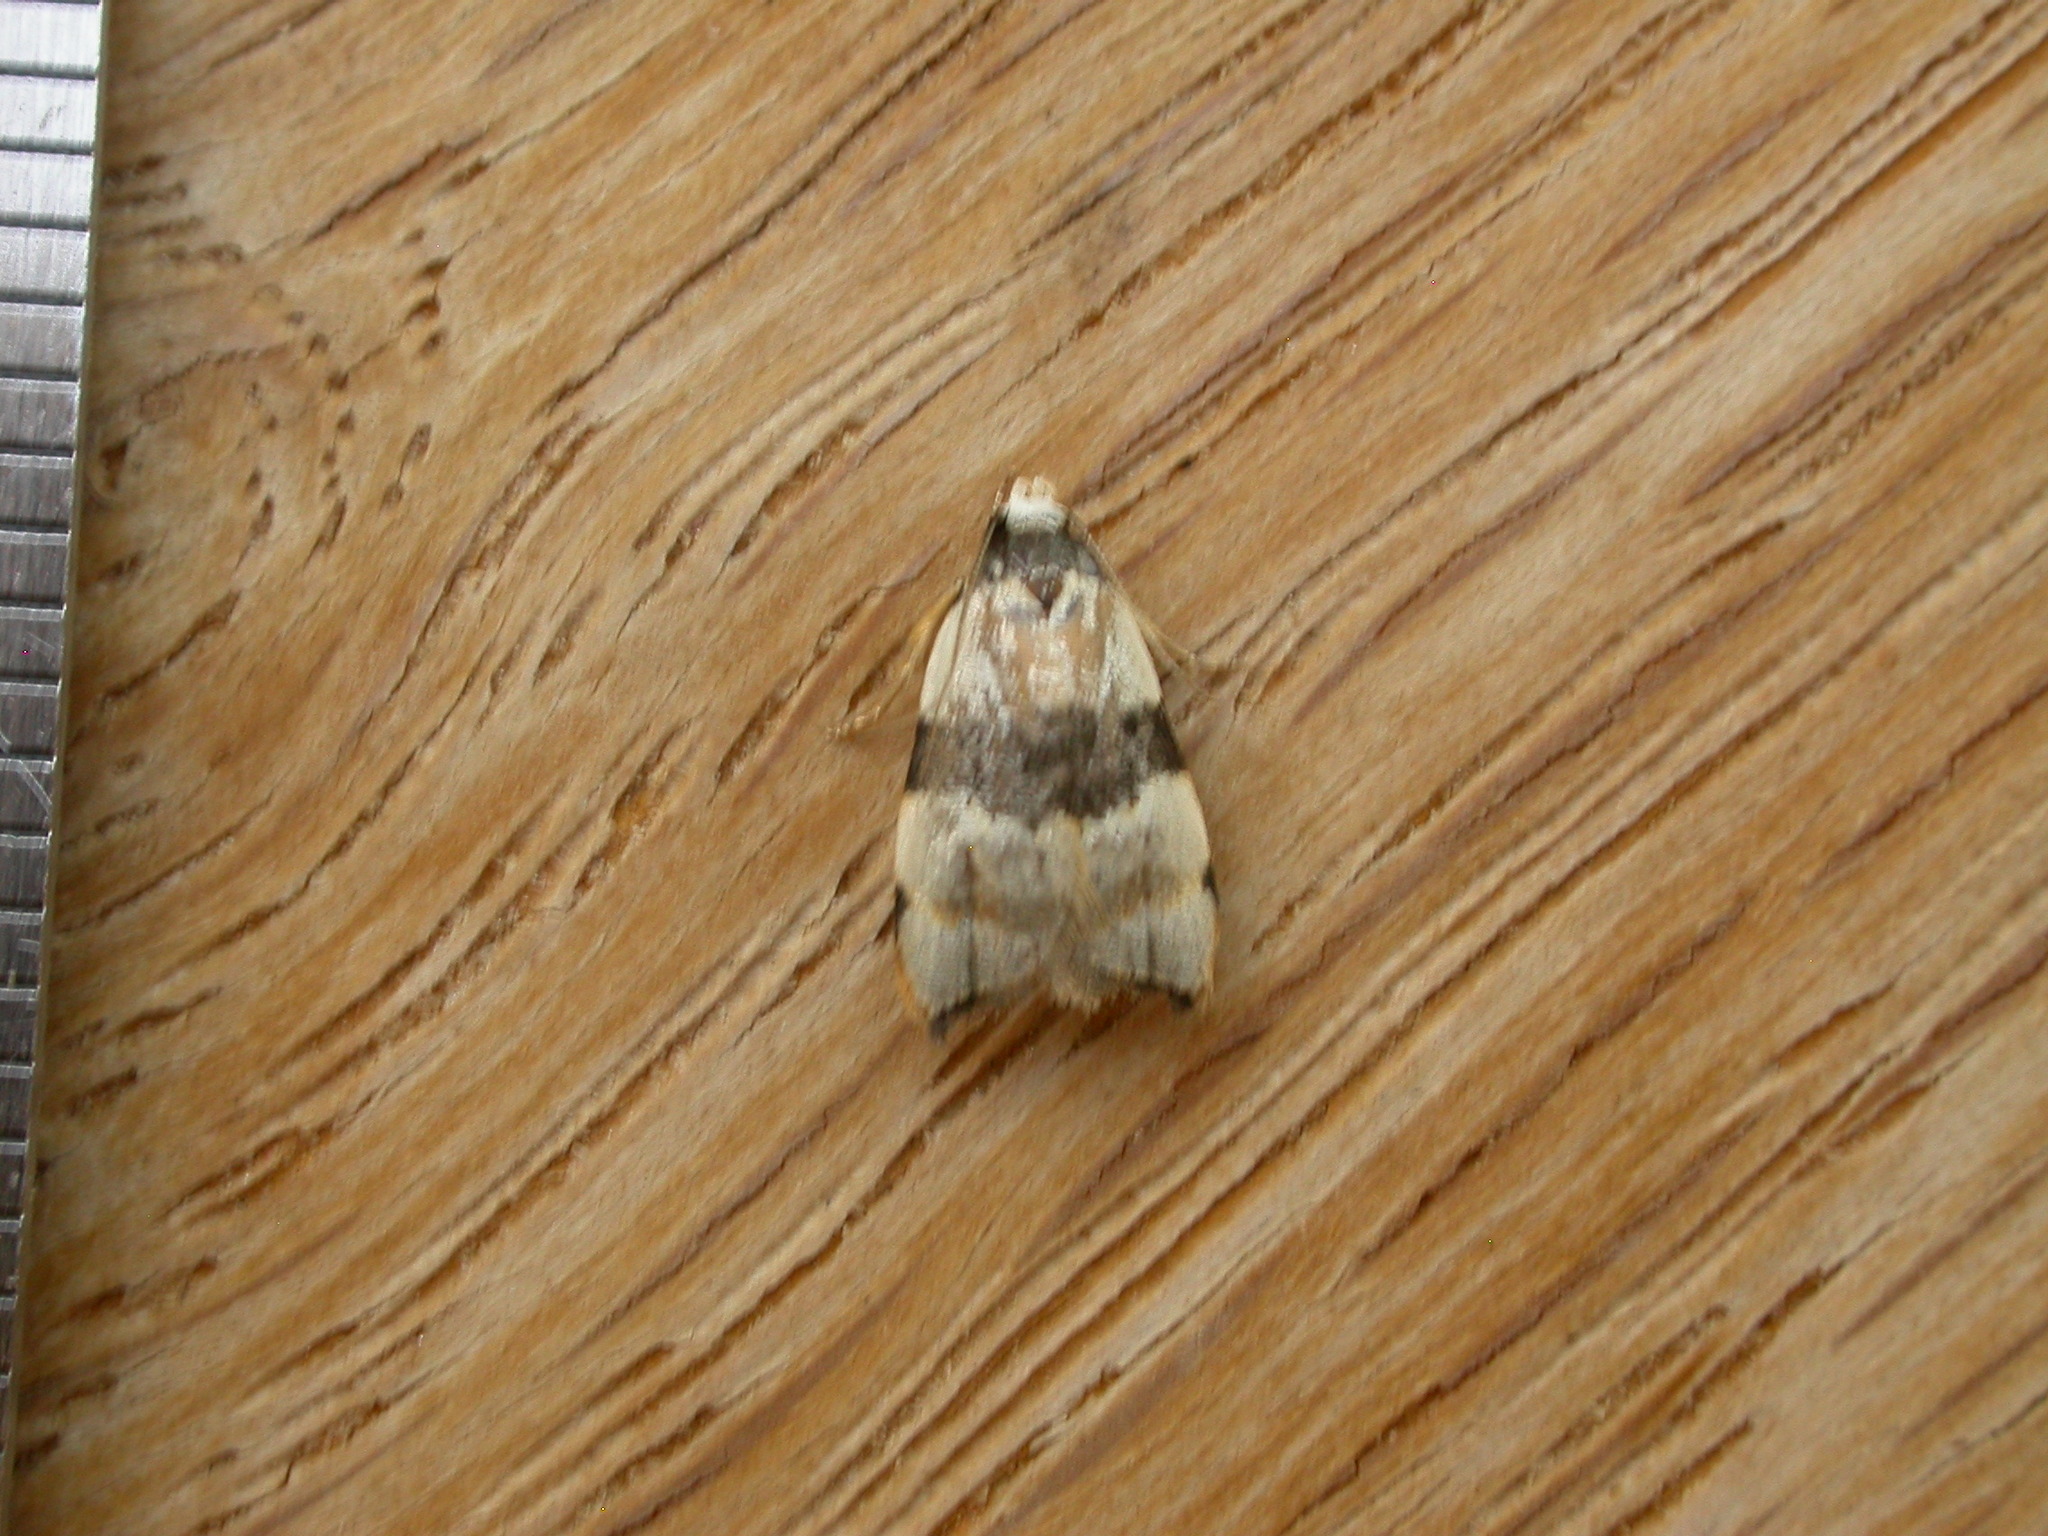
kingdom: Animalia
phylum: Arthropoda
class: Insecta
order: Lepidoptera
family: Oecophoridae
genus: Zonopetala
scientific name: Zonopetala glauconephela
